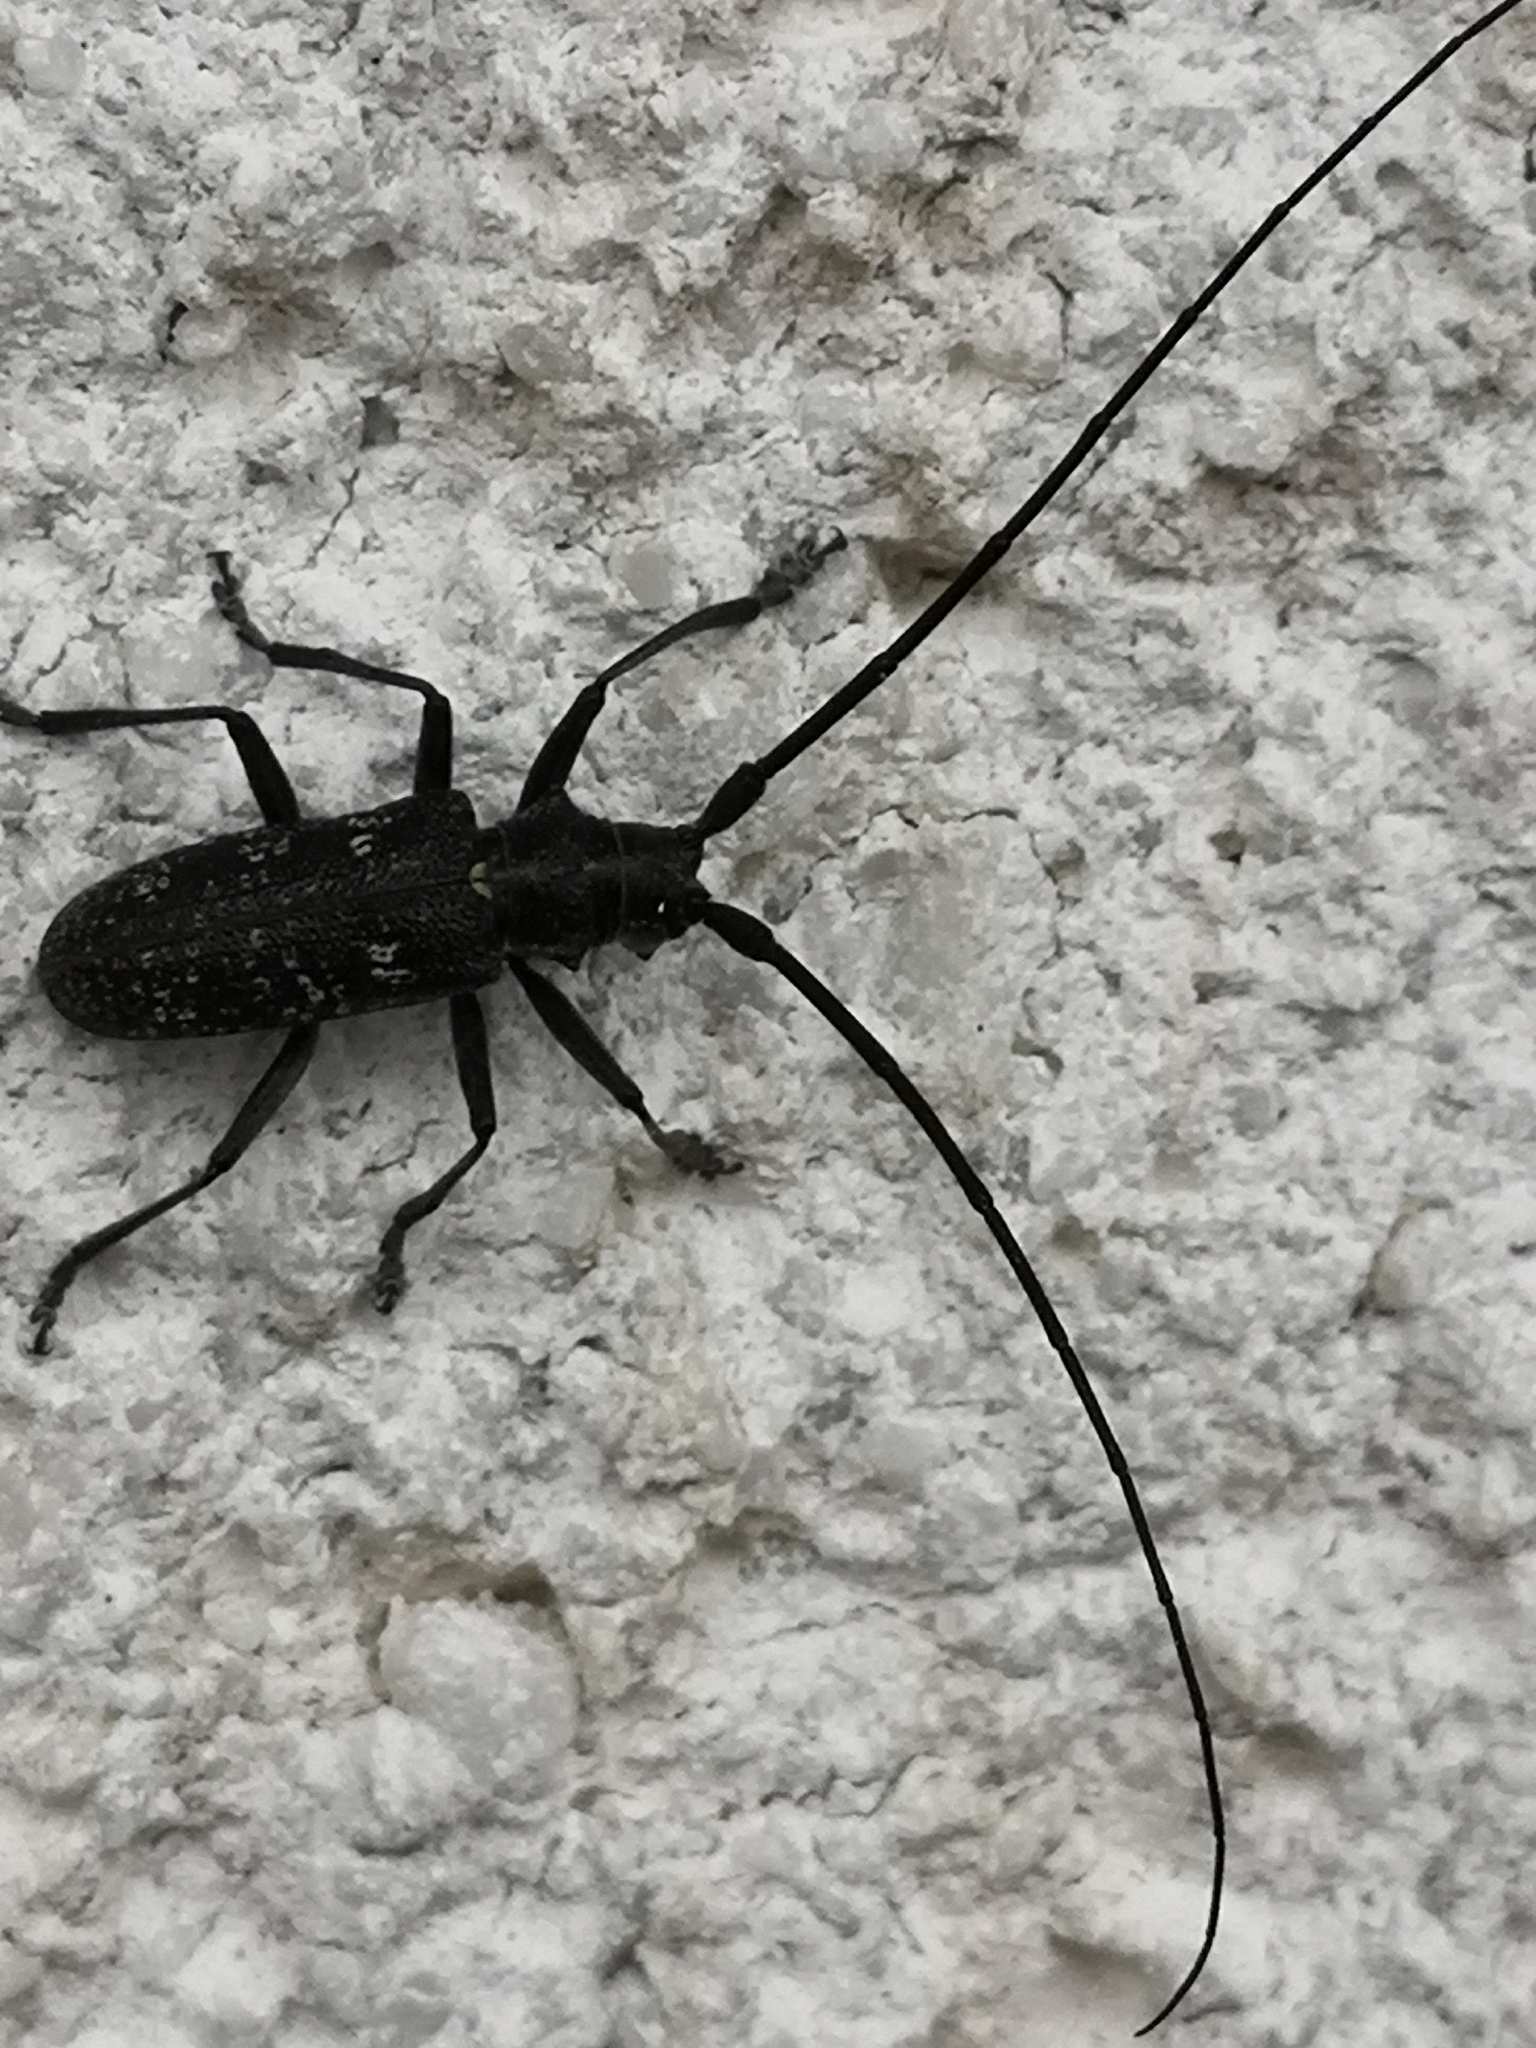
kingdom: Animalia
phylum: Arthropoda
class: Insecta
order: Coleoptera
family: Cerambycidae
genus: Monochamus
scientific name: Monochamus sutor
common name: Pine sawyer
